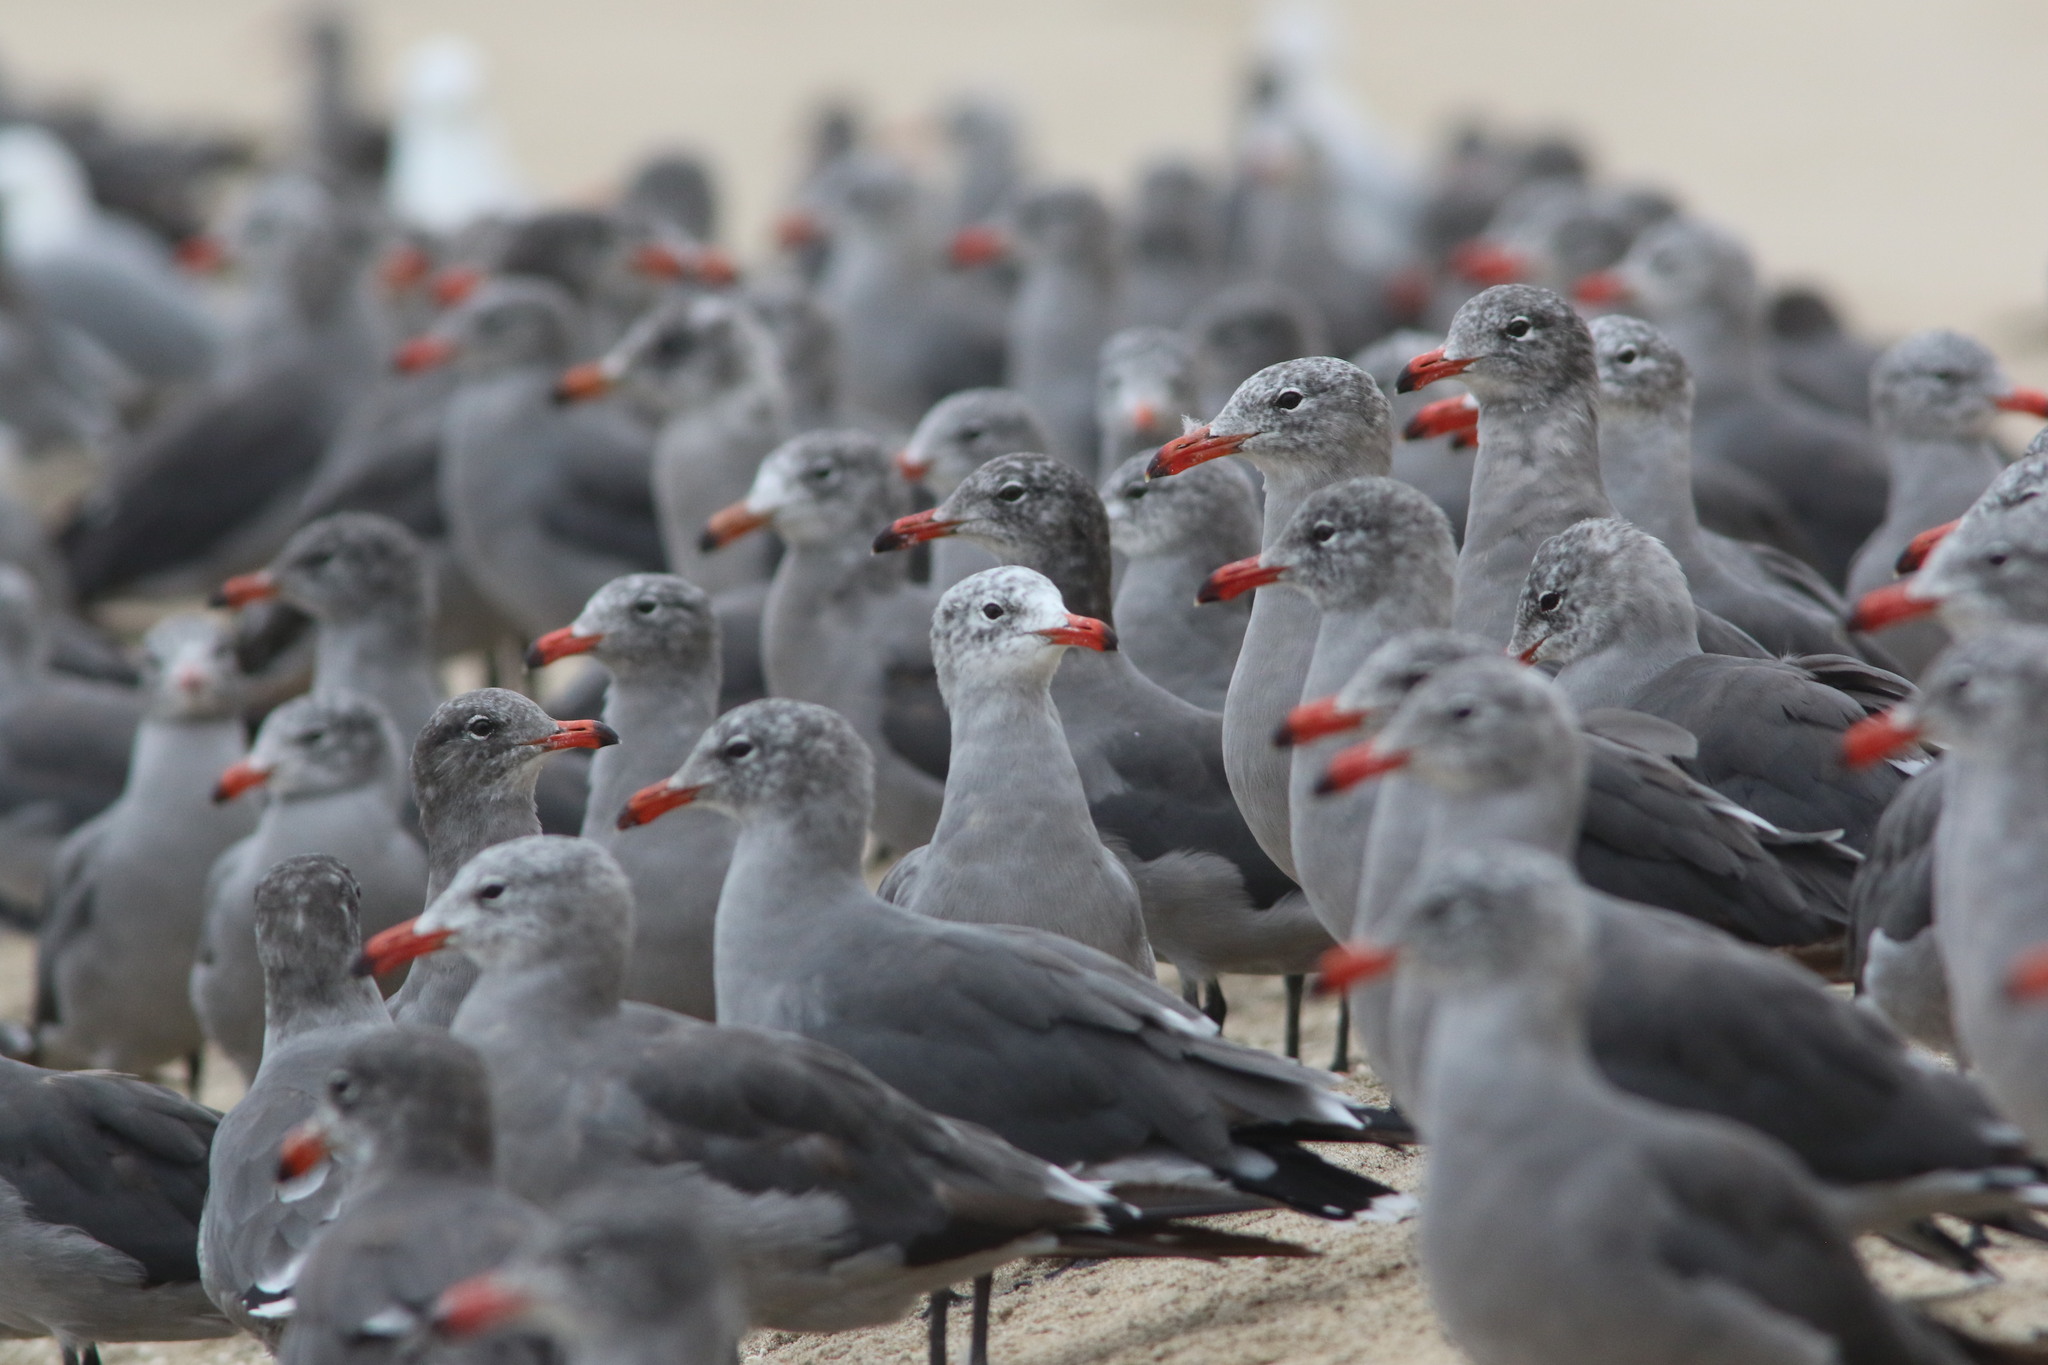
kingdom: Animalia
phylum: Chordata
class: Aves
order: Charadriiformes
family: Laridae
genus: Larus
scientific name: Larus heermanni
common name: Heermann's gull
